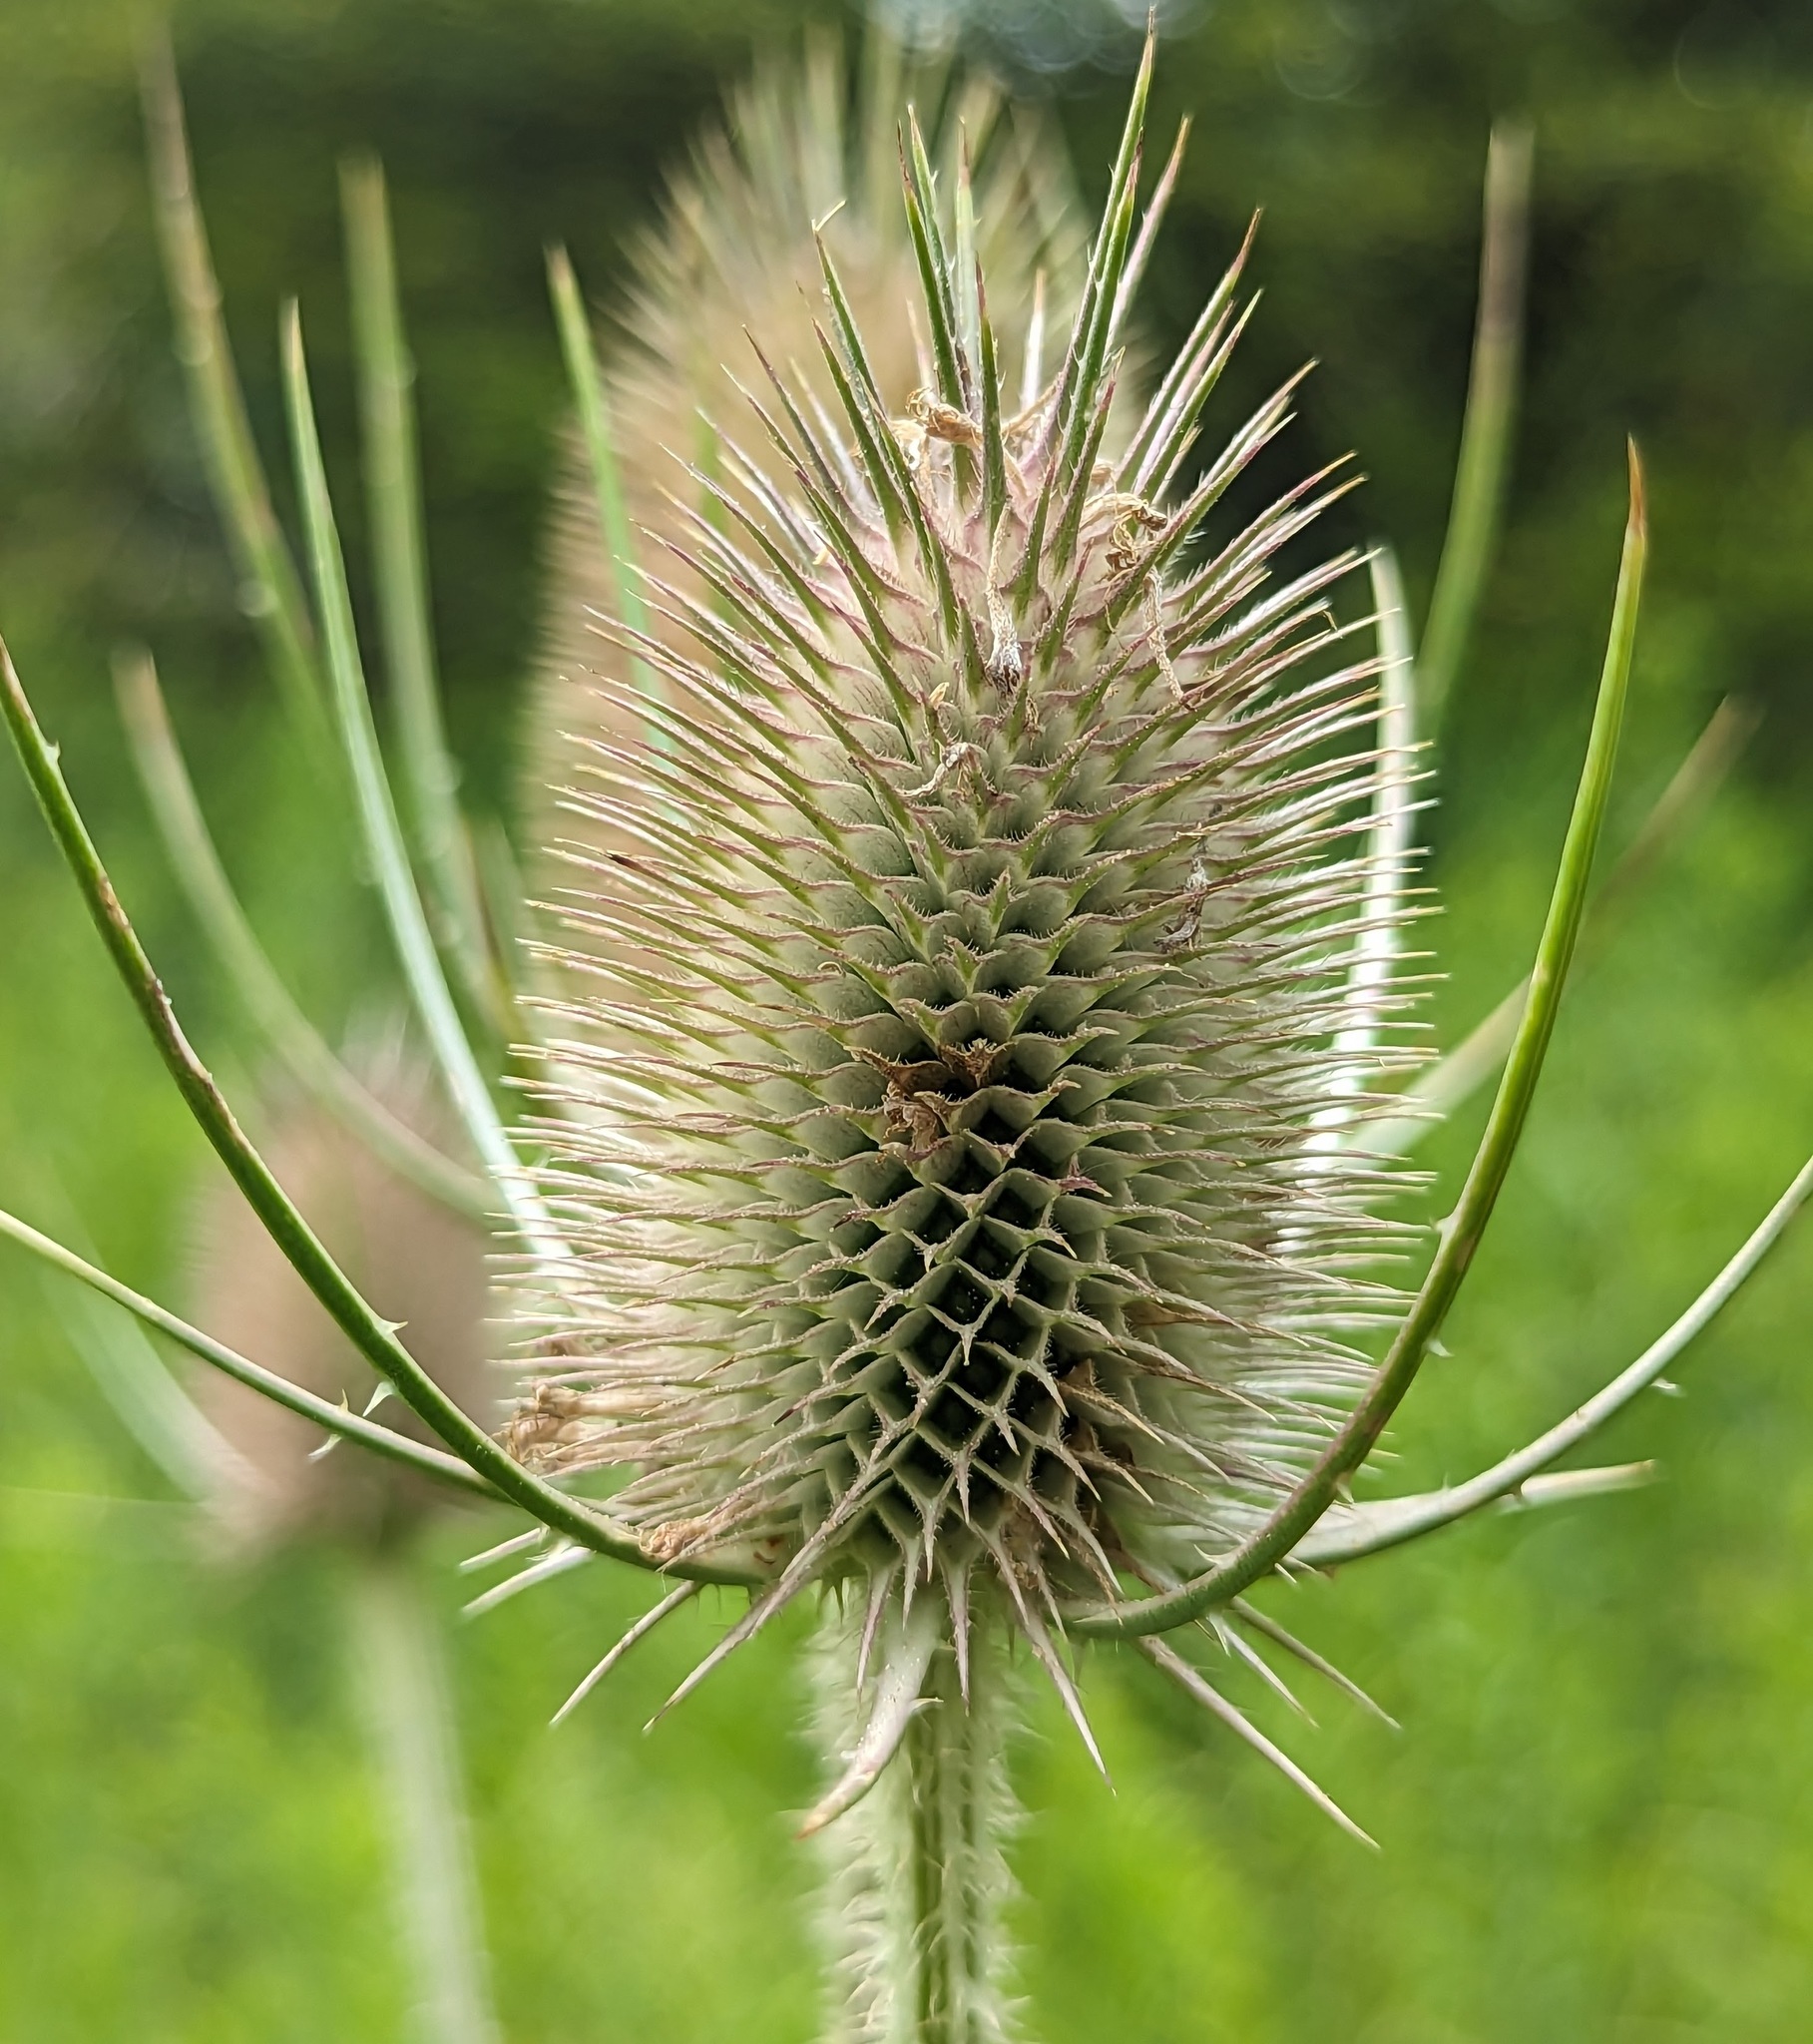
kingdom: Plantae
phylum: Tracheophyta
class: Magnoliopsida
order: Dipsacales
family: Caprifoliaceae
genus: Dipsacus
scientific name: Dipsacus fullonum
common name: Teasel
